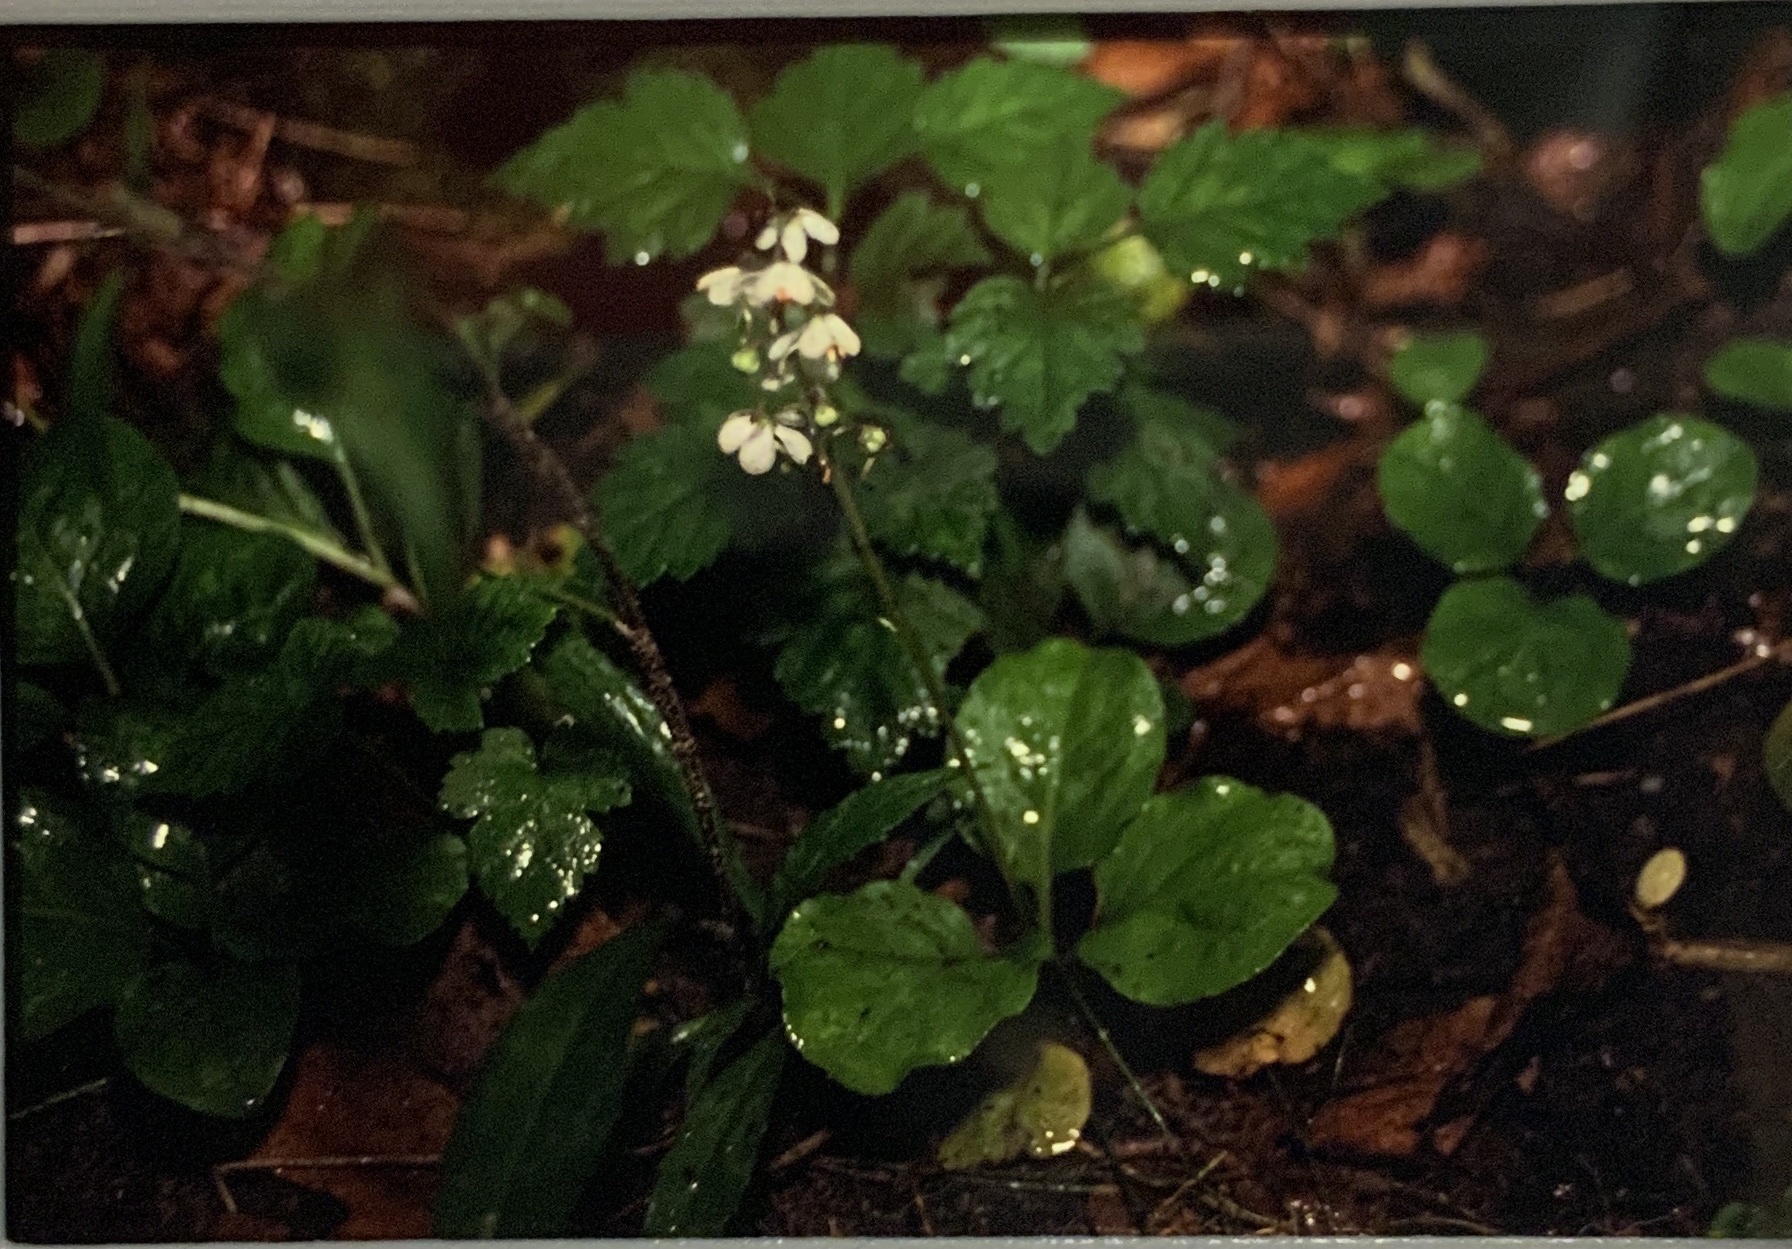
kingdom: Plantae
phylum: Tracheophyta
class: Magnoliopsida
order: Ericales
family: Ericaceae
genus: Pyrola
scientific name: Pyrola elliptica
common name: Shinleaf
